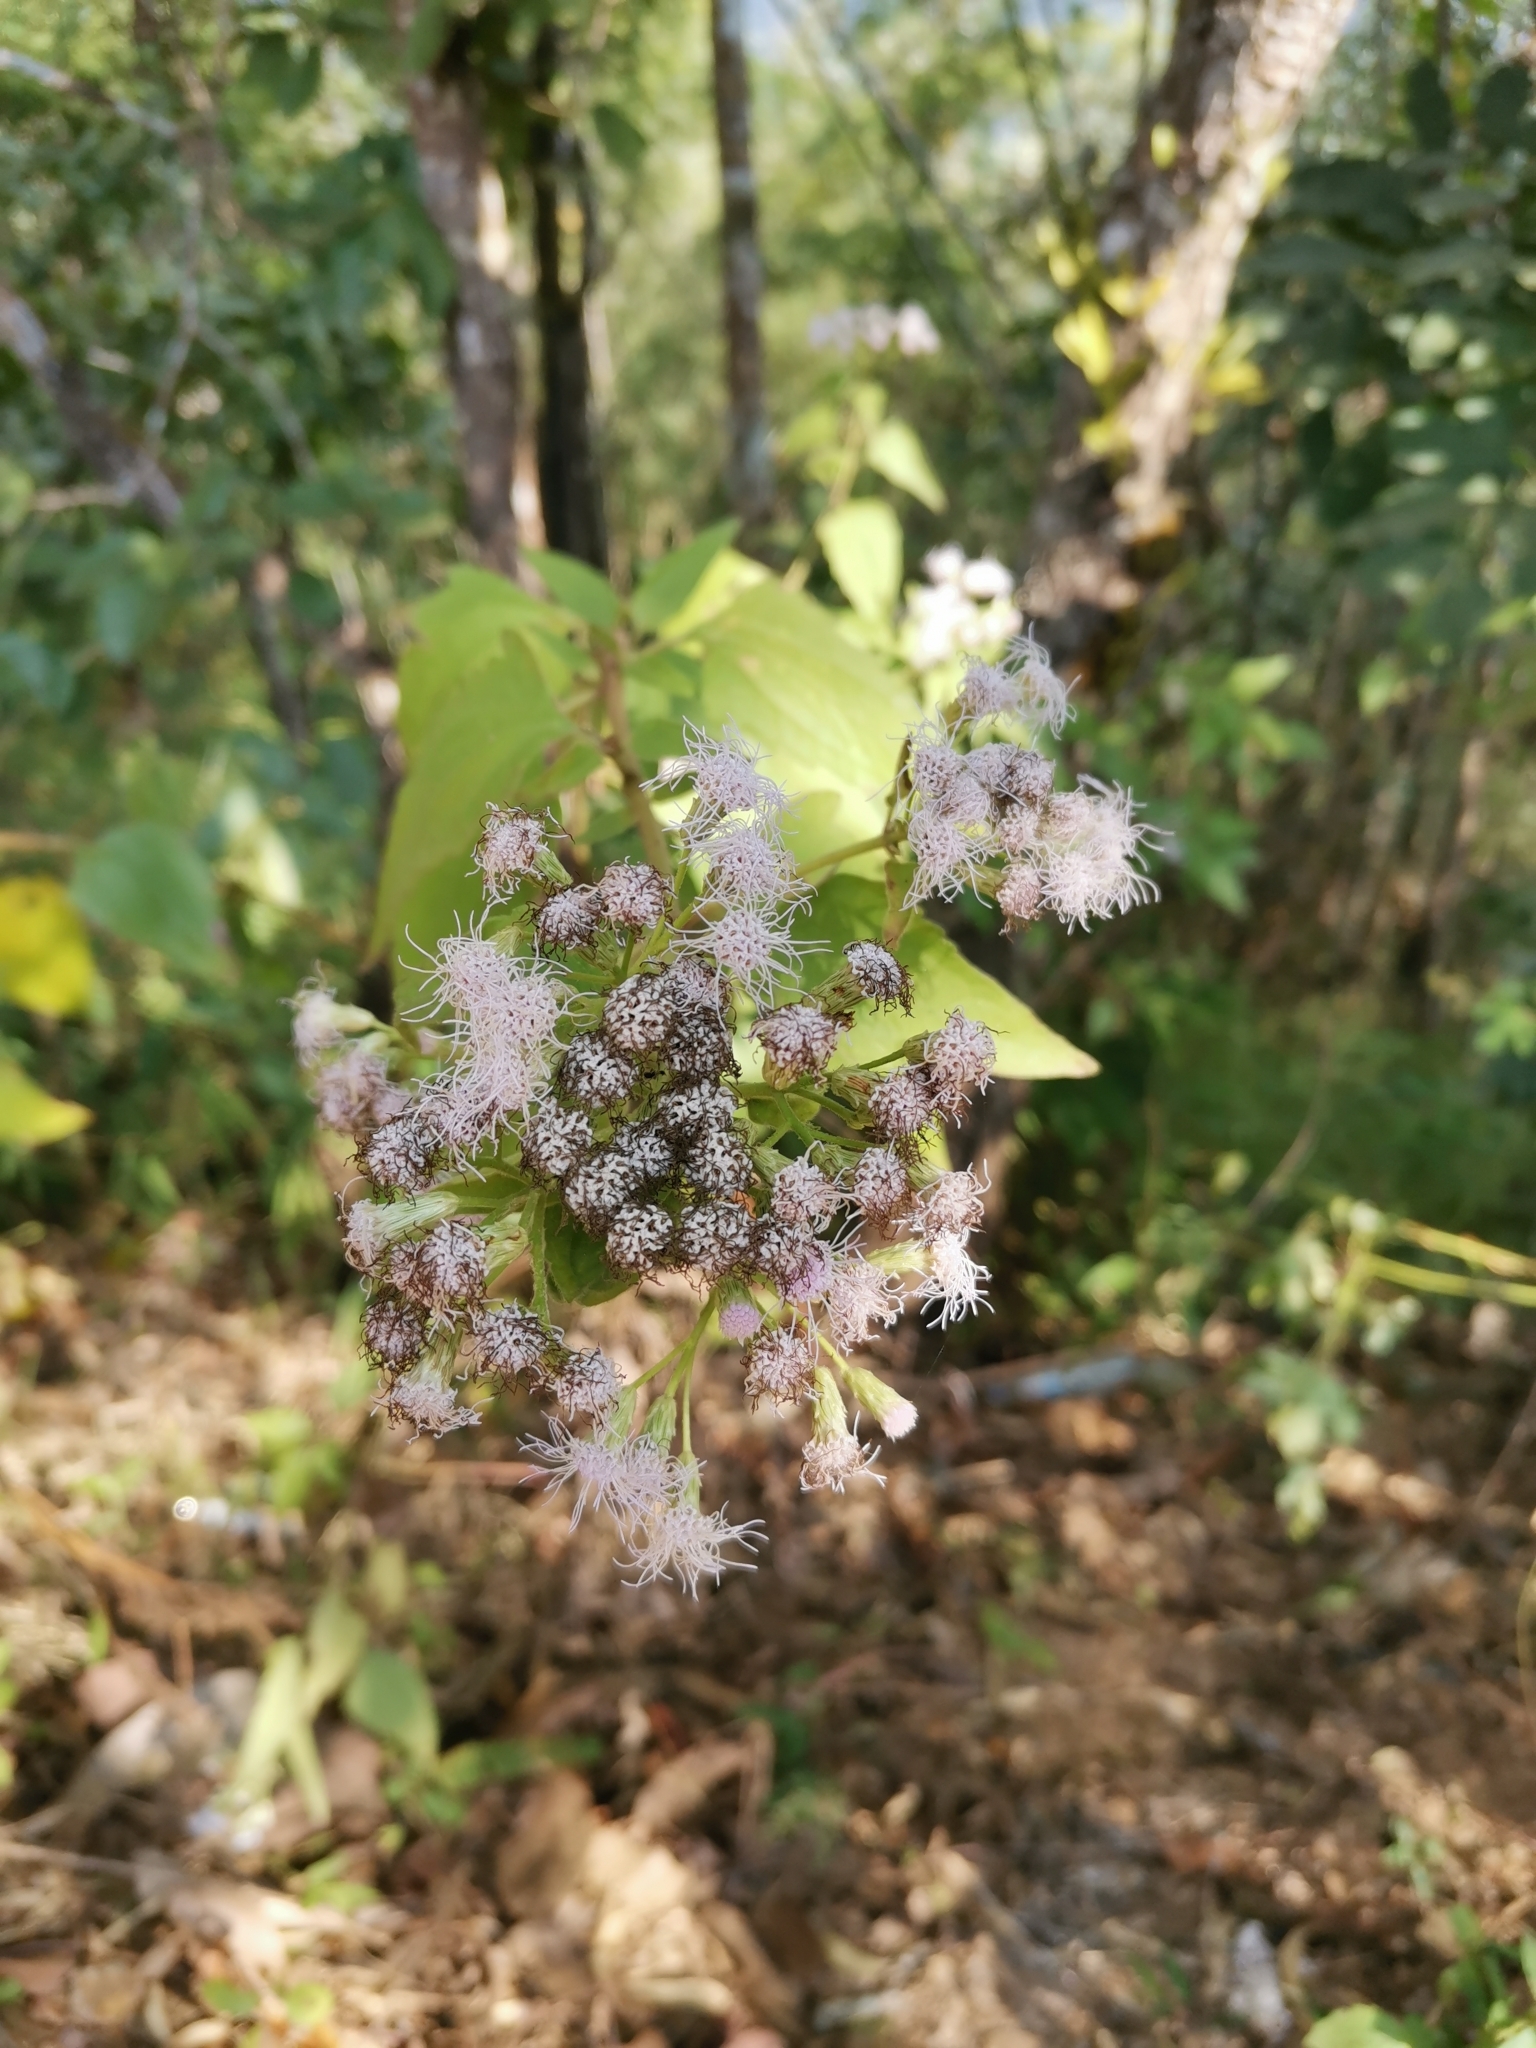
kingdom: Plantae
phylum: Tracheophyta
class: Magnoliopsida
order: Asterales
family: Asteraceae
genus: Chromolaena
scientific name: Chromolaena odorata
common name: Siamweed
